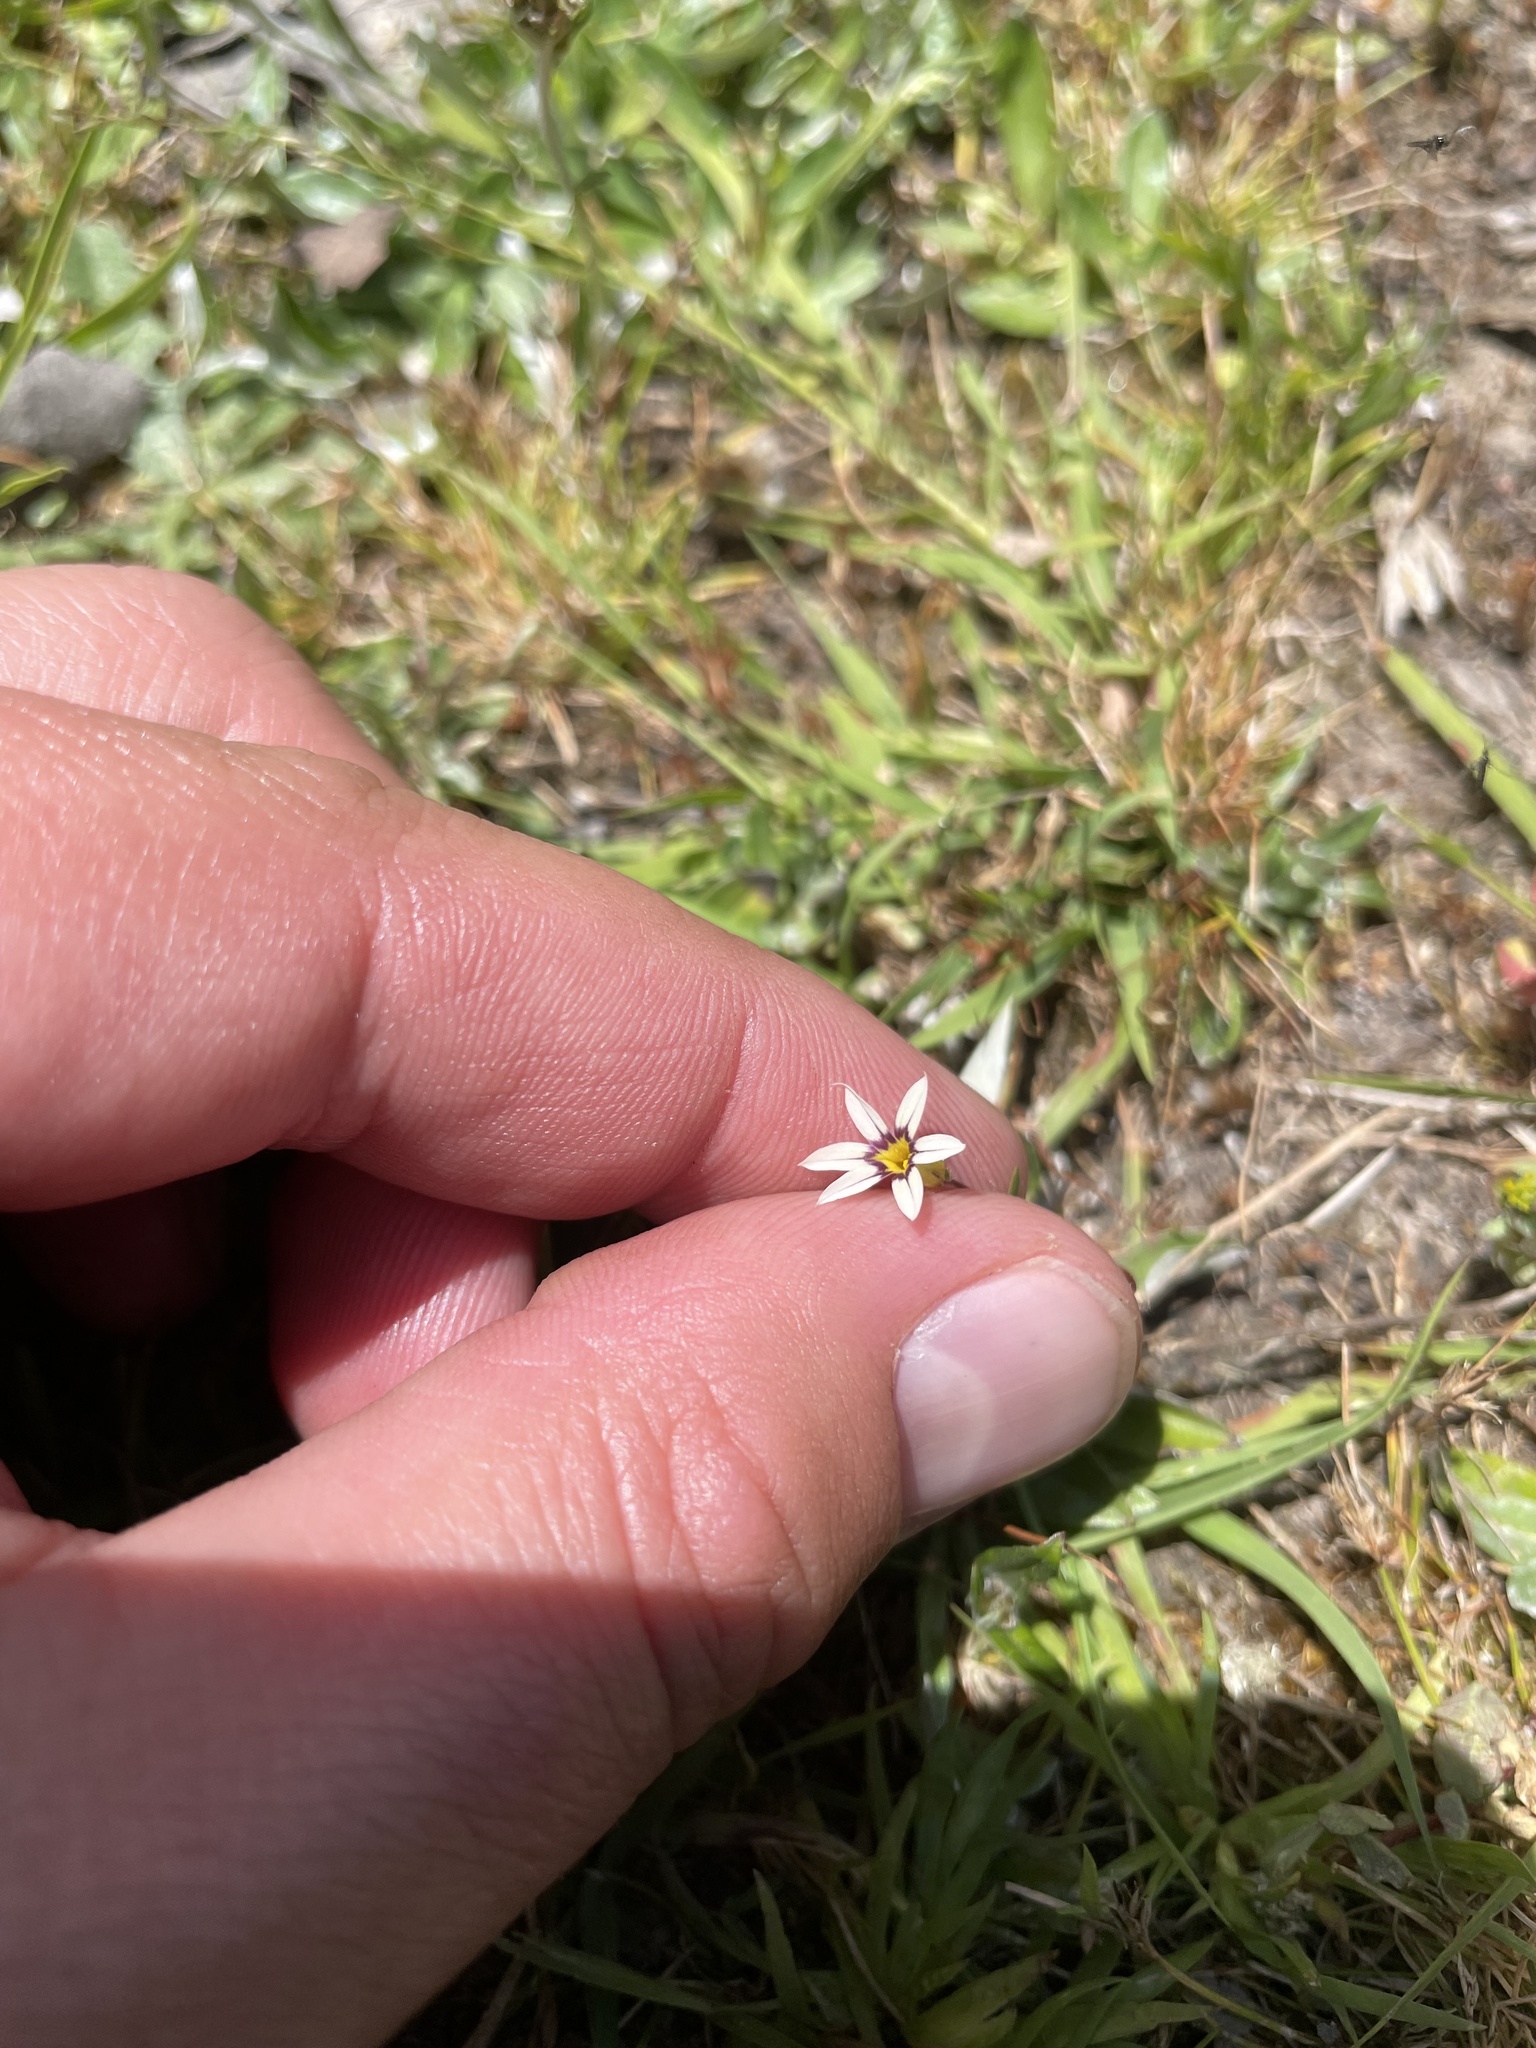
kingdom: Plantae
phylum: Tracheophyta
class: Liliopsida
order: Asparagales
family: Iridaceae
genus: Sisyrinchium
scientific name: Sisyrinchium micranthum
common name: Bermuda pigroot
